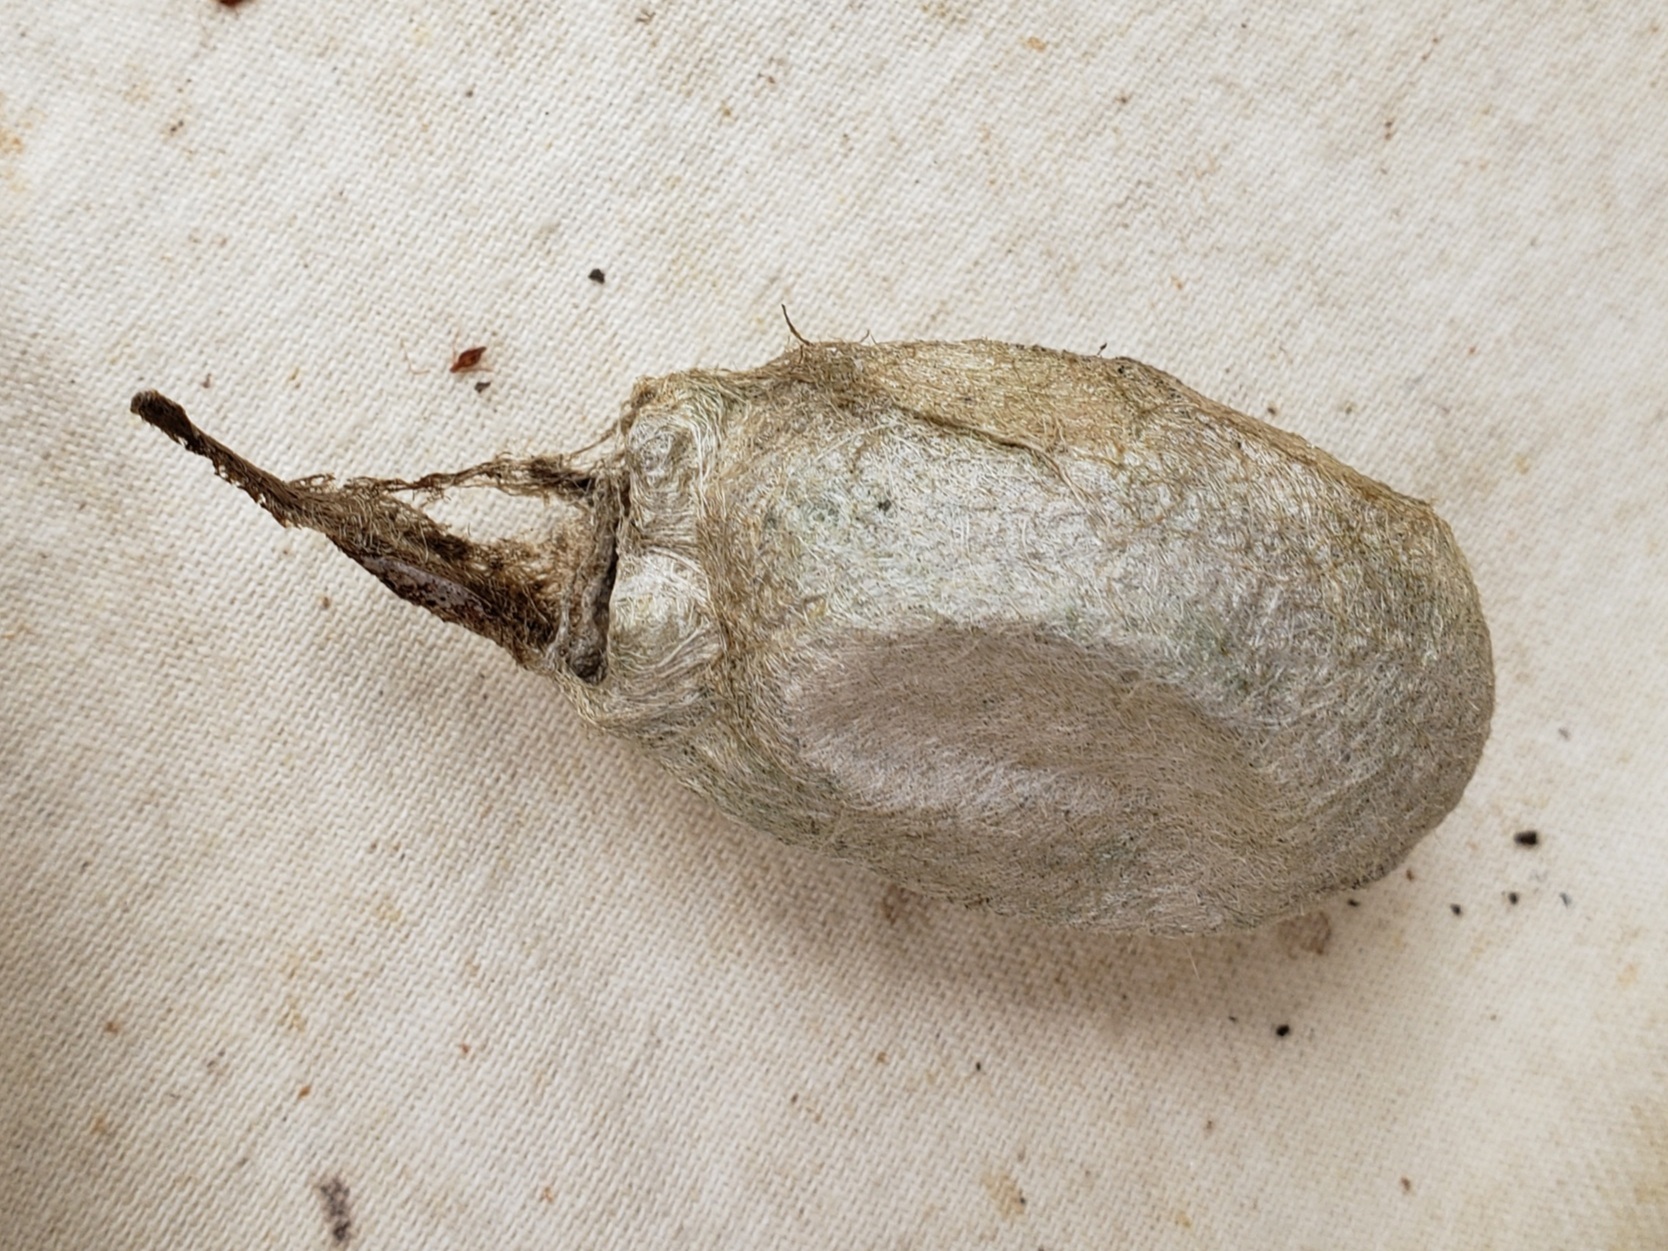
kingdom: Animalia
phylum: Arthropoda
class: Insecta
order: Lepidoptera
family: Saturniidae
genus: Antheraea
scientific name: Antheraea polyphemus
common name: Polyphemus moth
